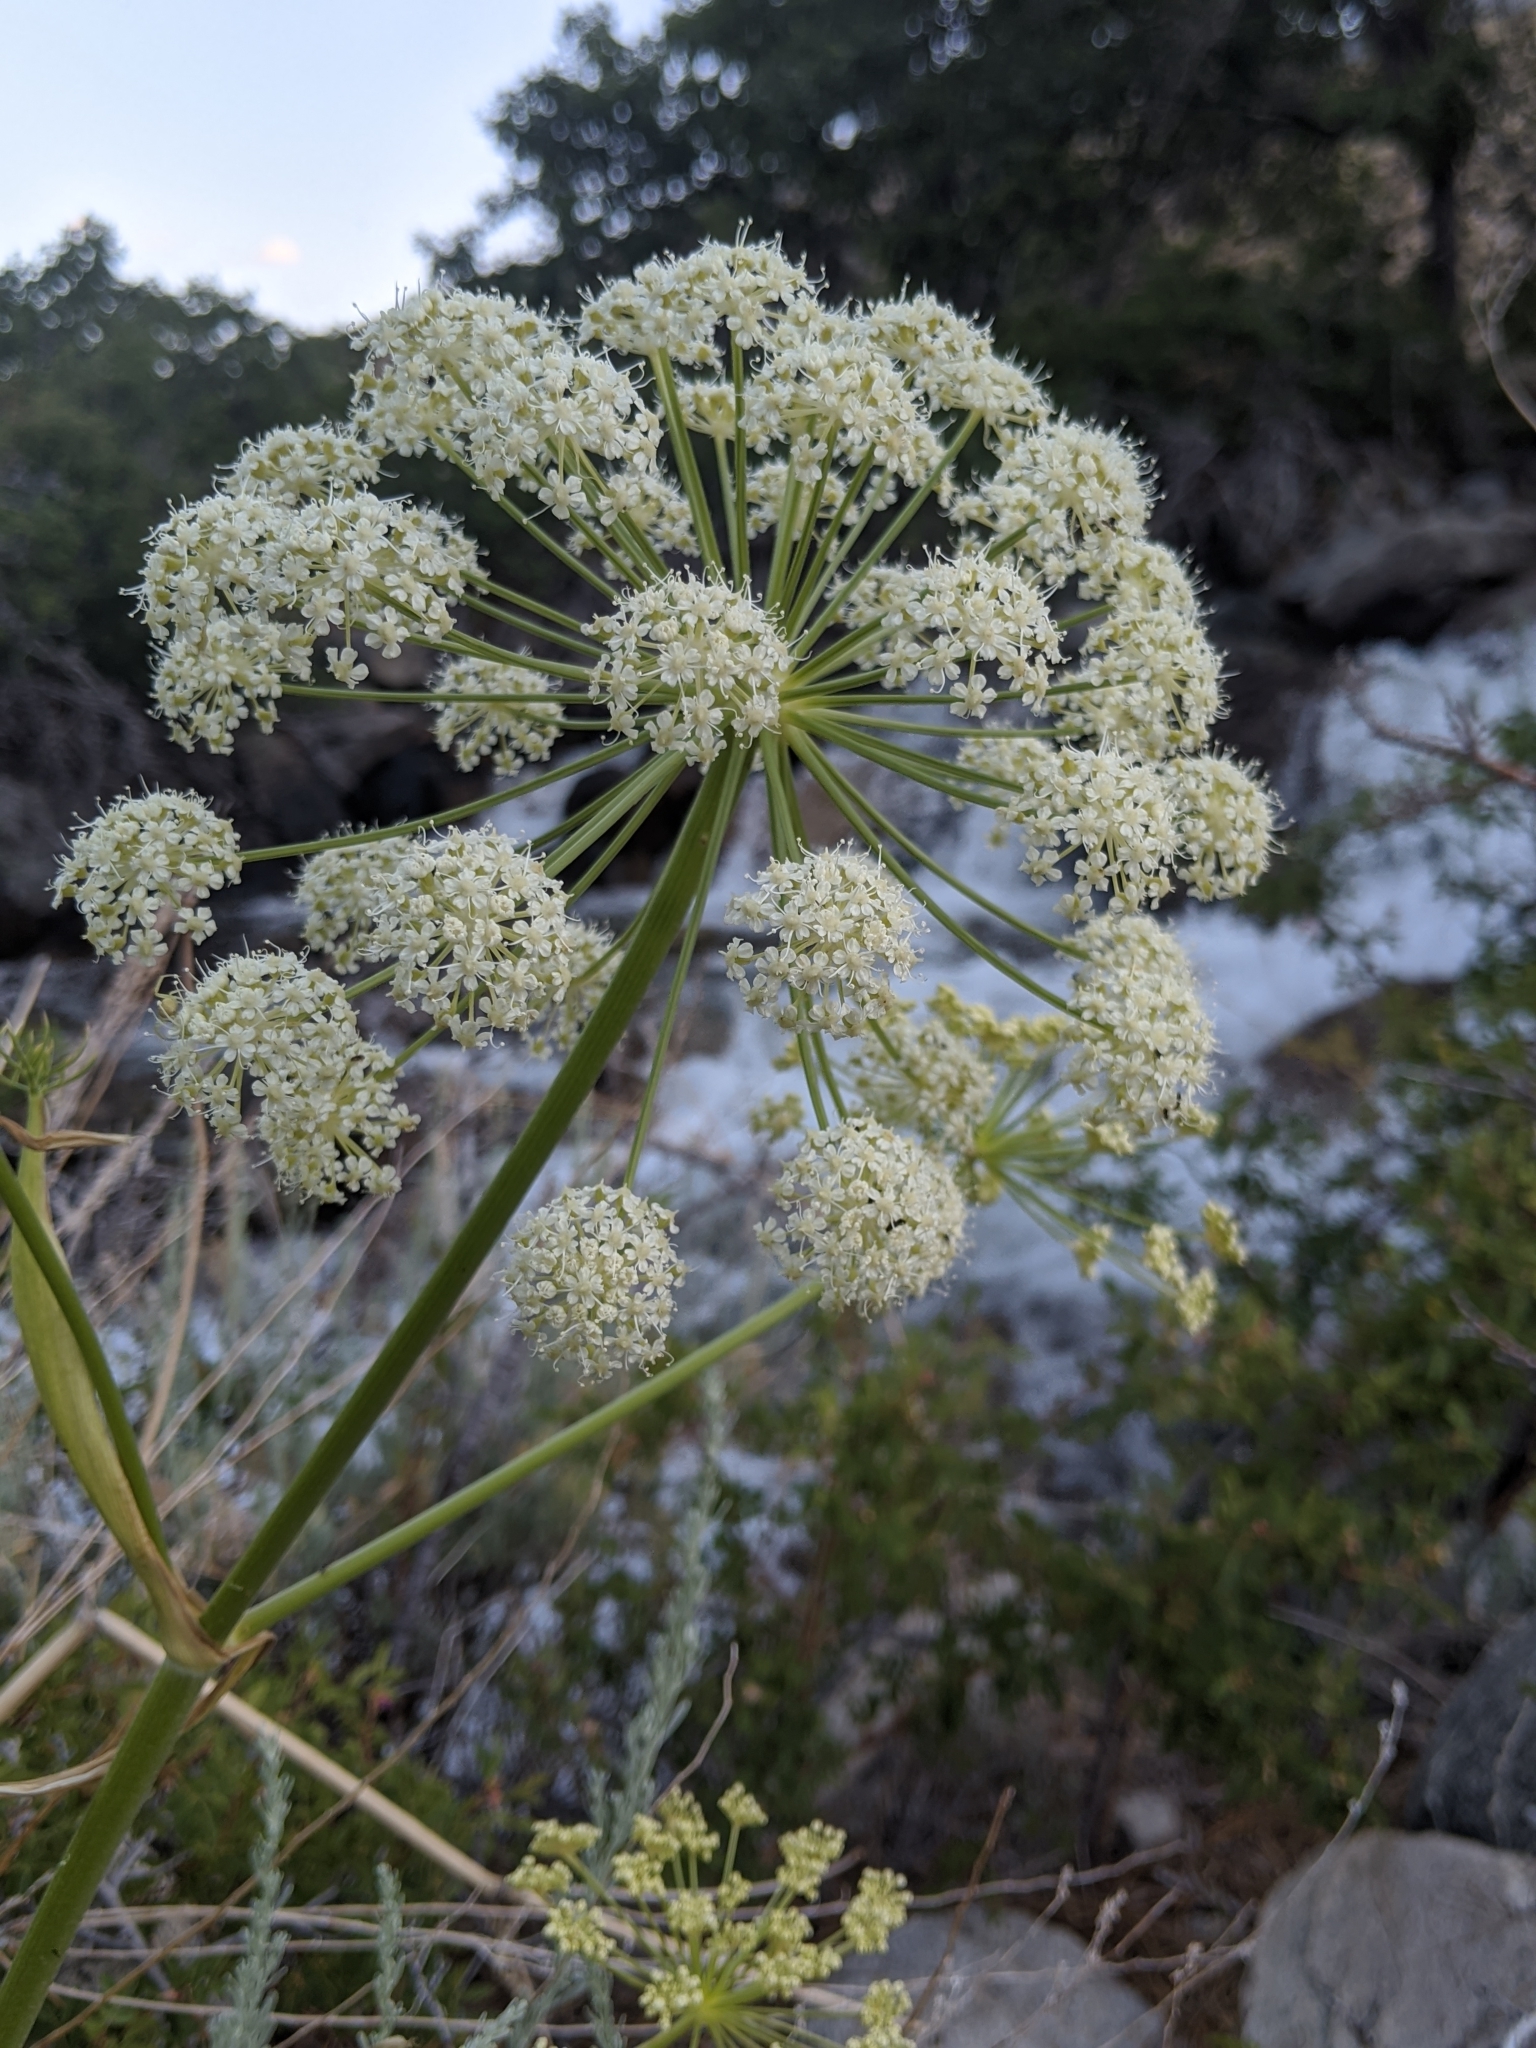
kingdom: Plantae
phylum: Tracheophyta
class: Magnoliopsida
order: Apiales
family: Apiaceae
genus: Angelica
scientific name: Angelica lineariloba
